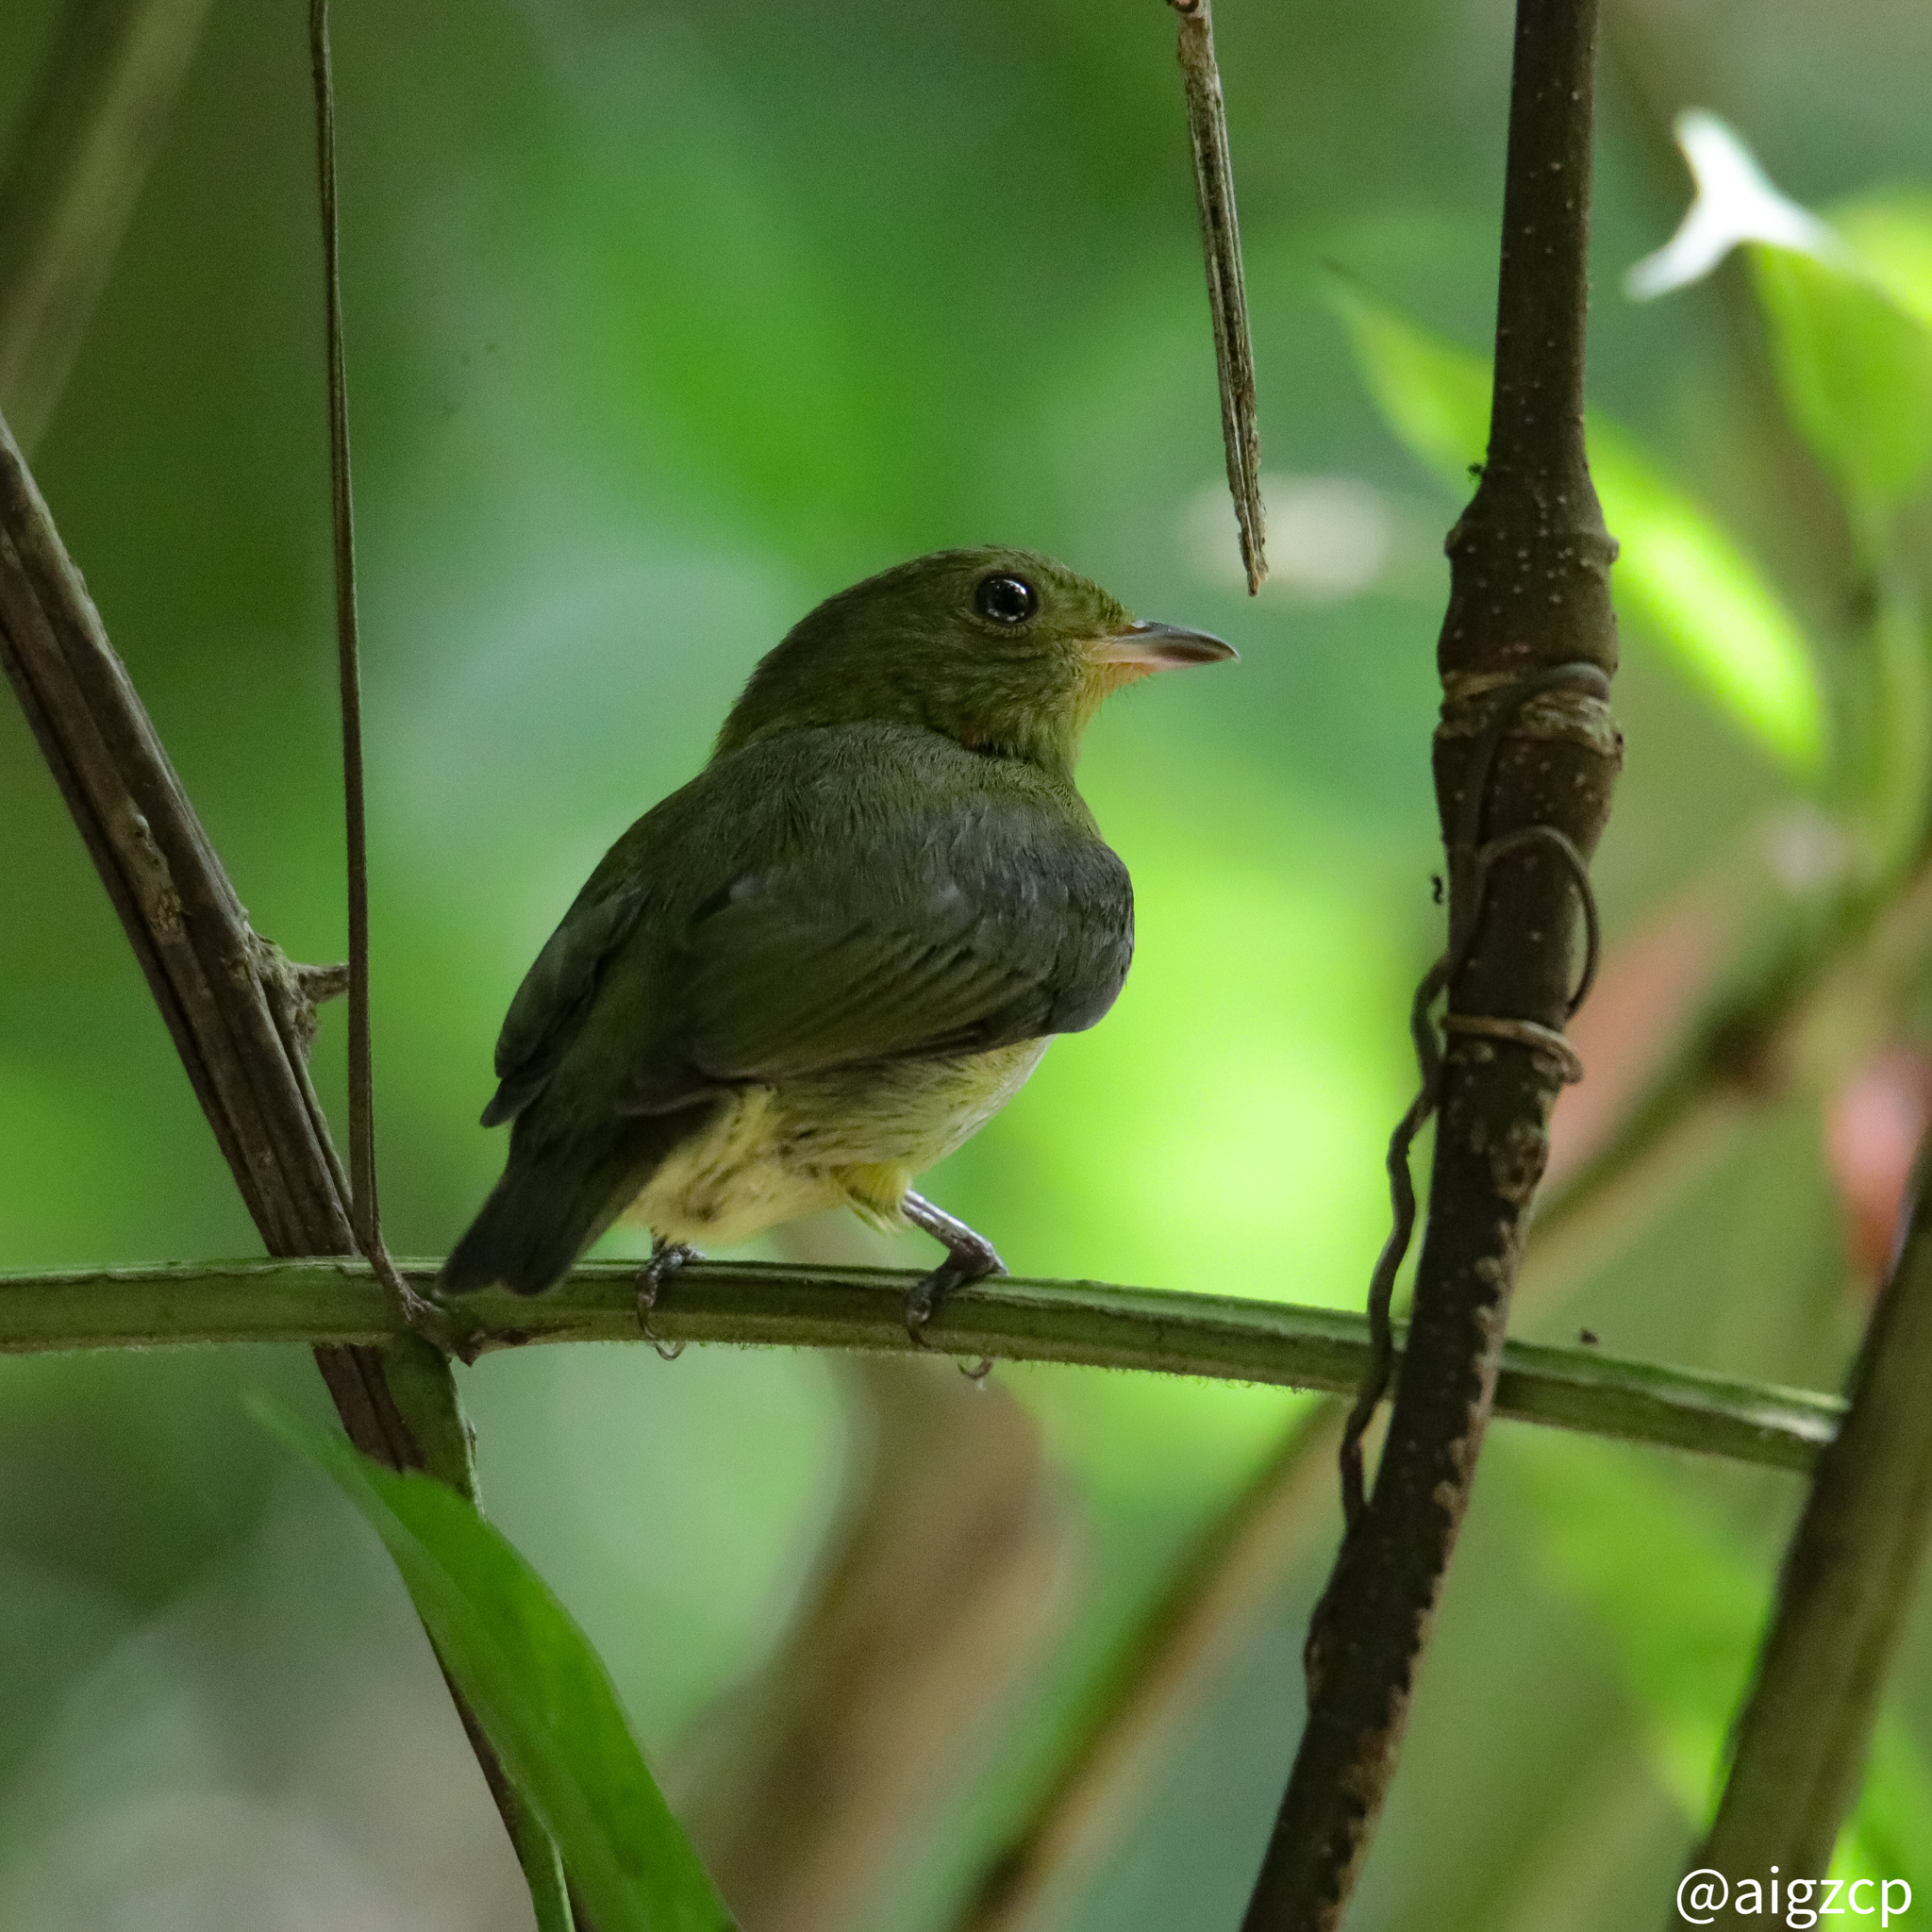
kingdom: Animalia
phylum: Chordata
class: Aves
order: Passeriformes
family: Pipridae
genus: Pipra
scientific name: Pipra mentalis
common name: Red-capped manakin
